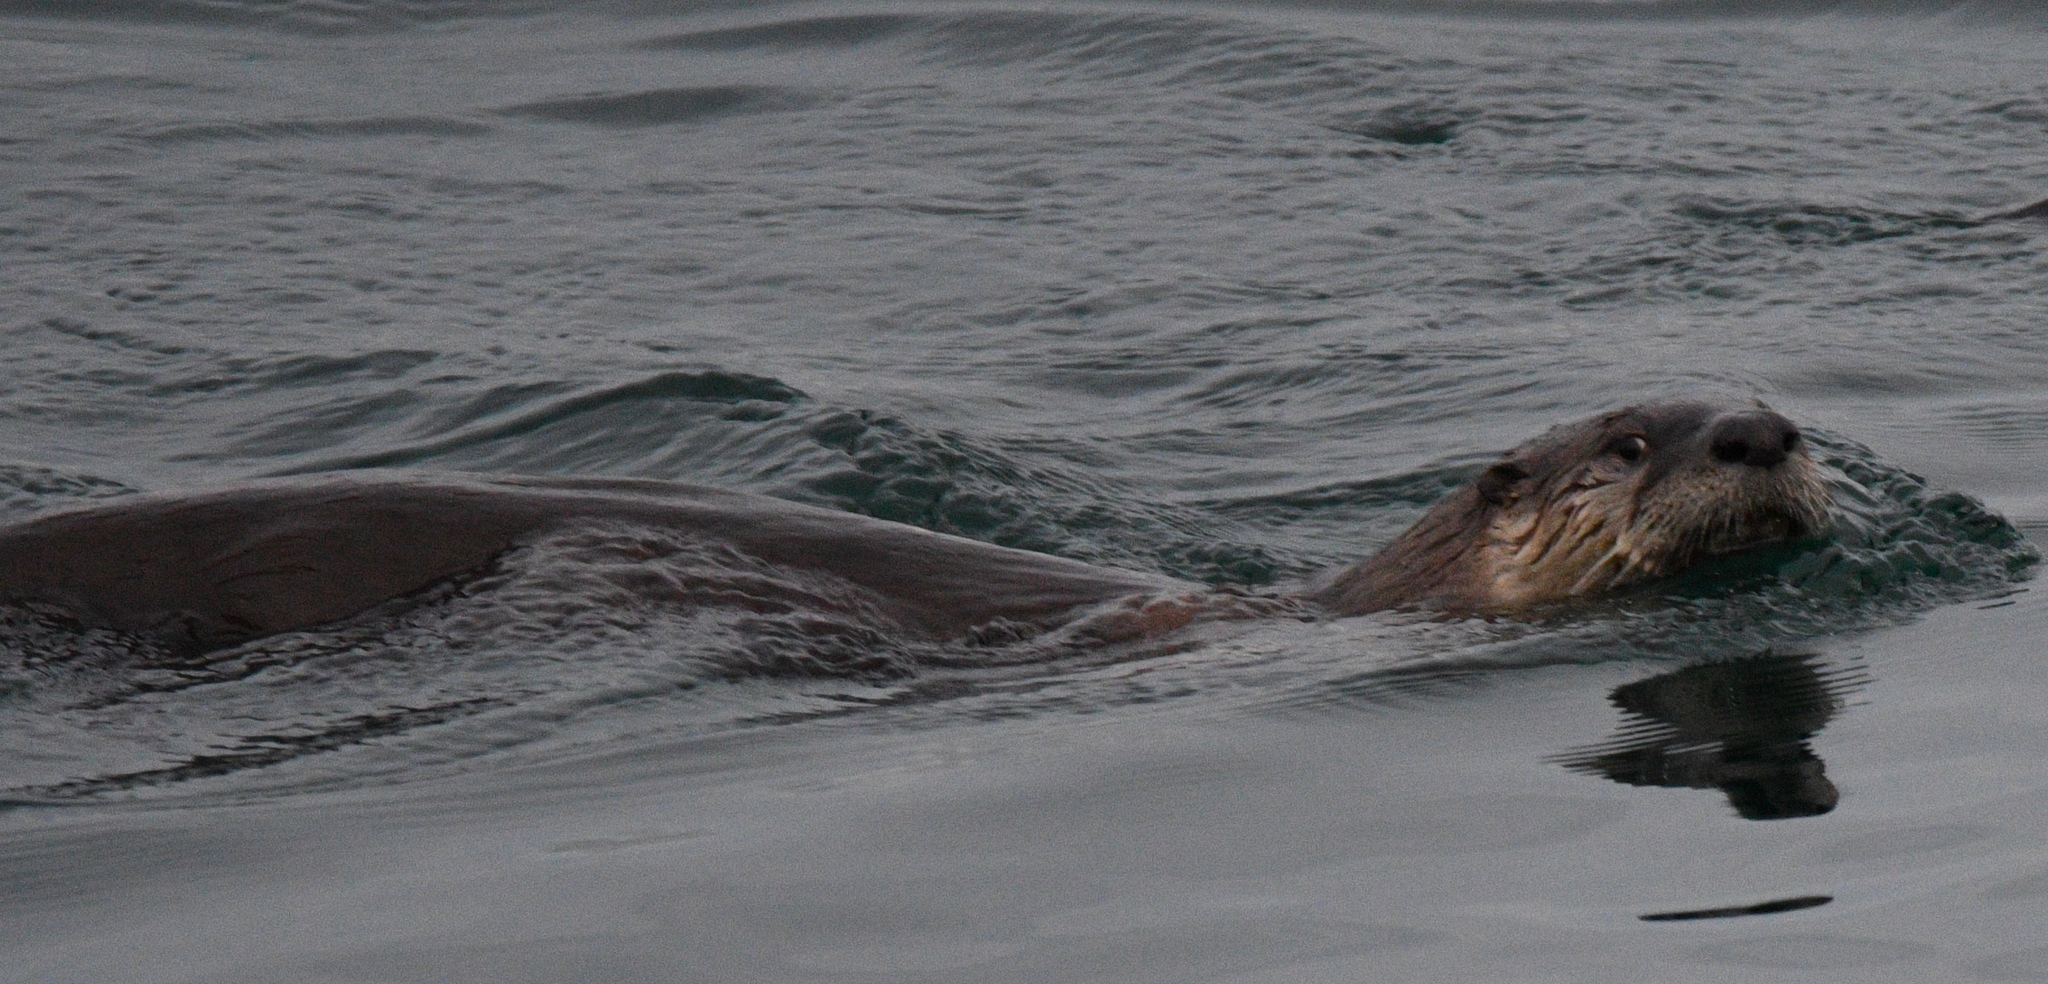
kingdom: Animalia
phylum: Chordata
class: Mammalia
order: Carnivora
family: Mustelidae
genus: Lontra
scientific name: Lontra canadensis
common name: North american river otter
